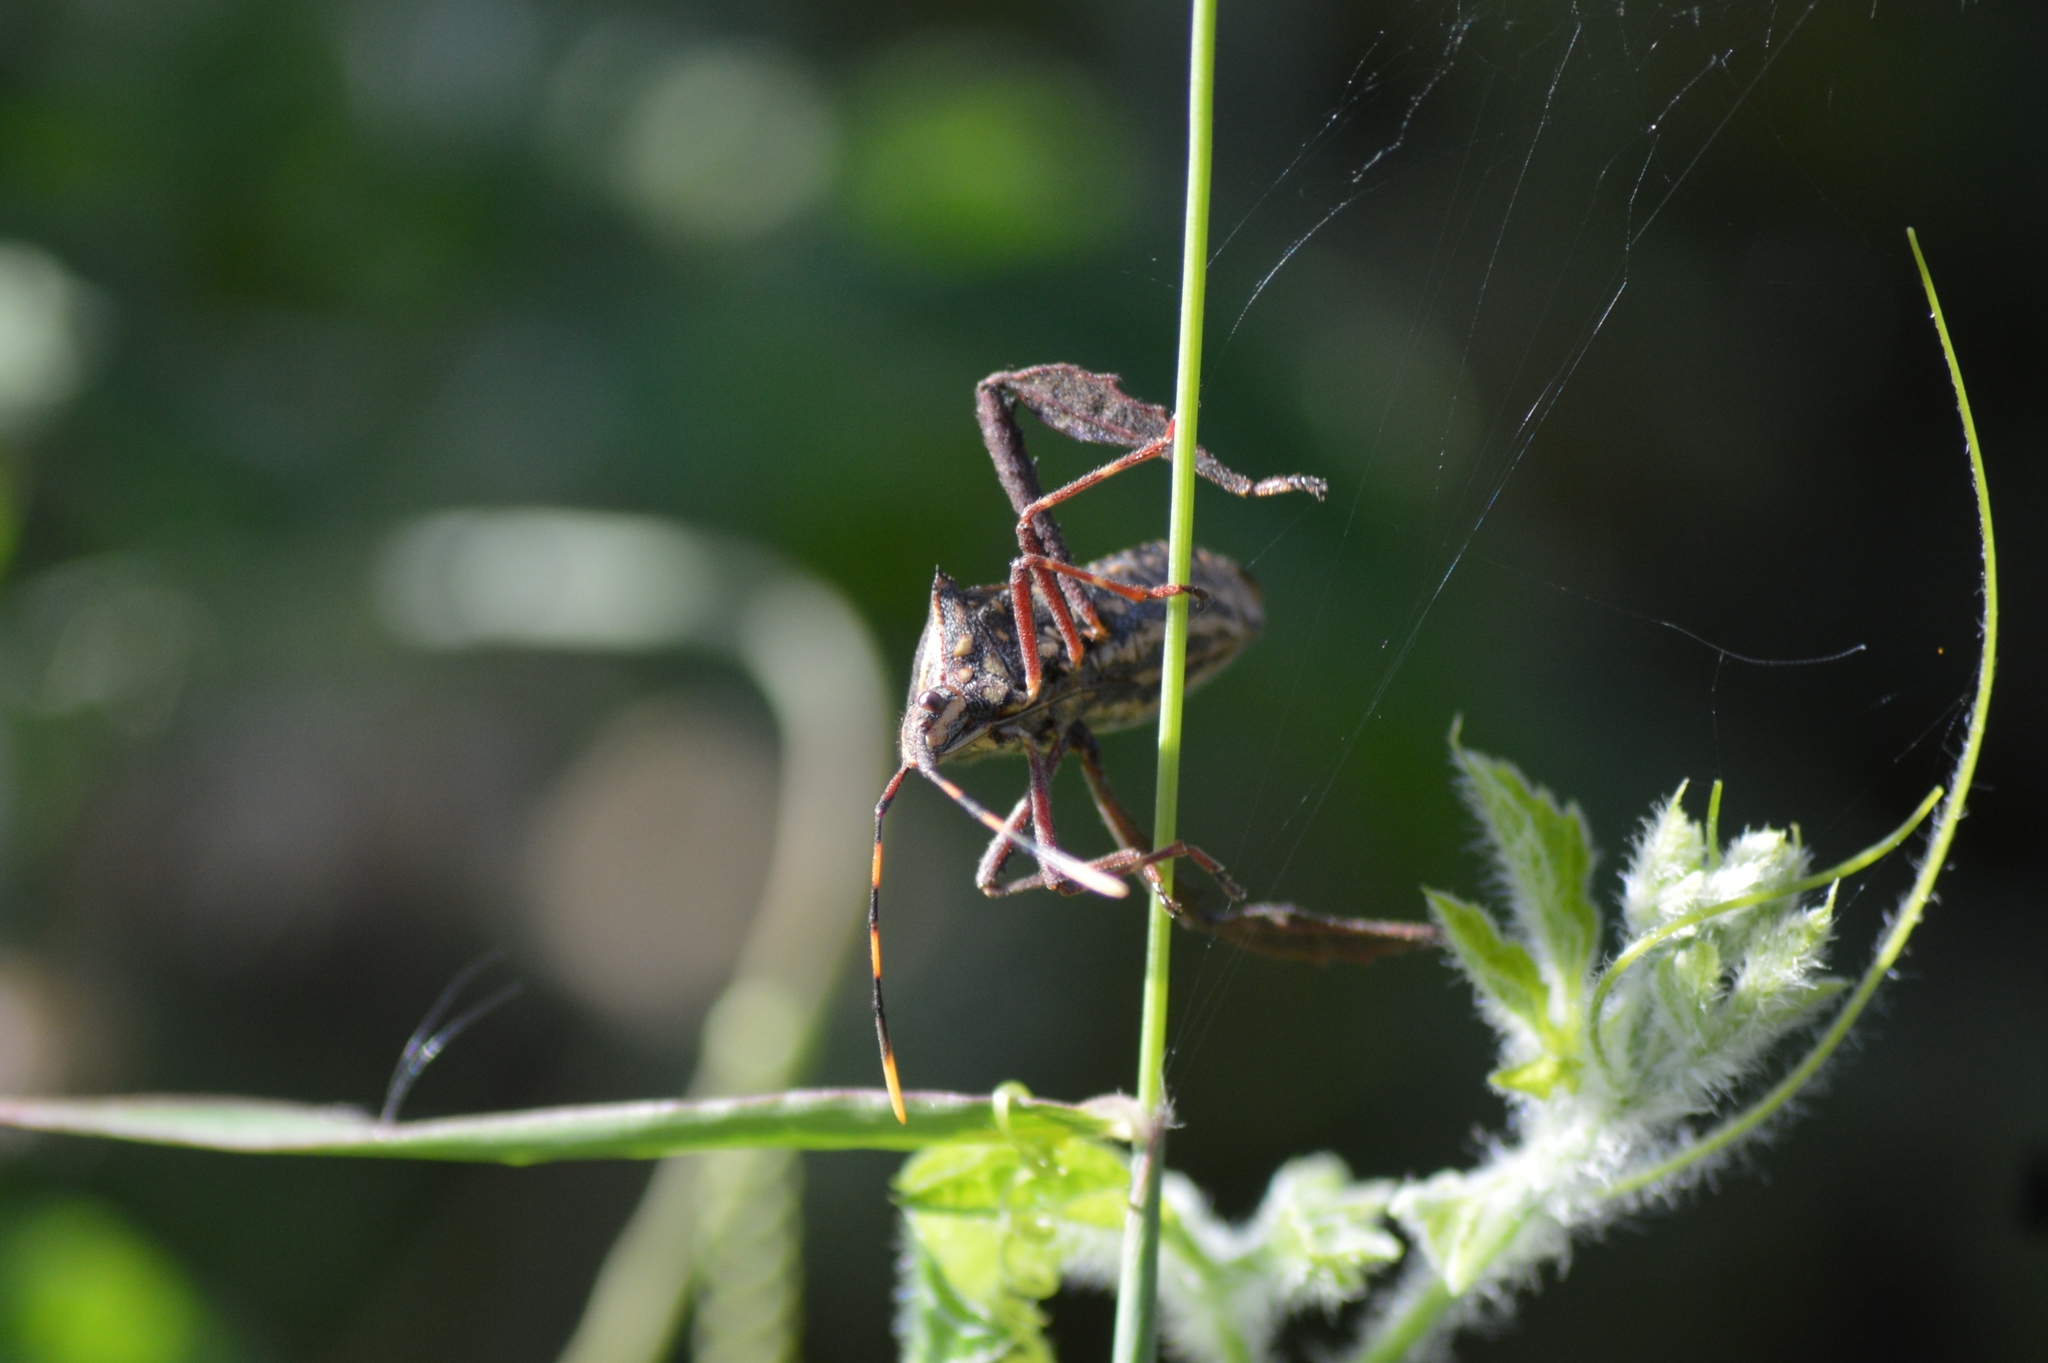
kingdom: Animalia
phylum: Arthropoda
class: Insecta
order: Hemiptera
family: Coreidae
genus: Leptoglossus
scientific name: Leptoglossus gonagra
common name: Citron bug
